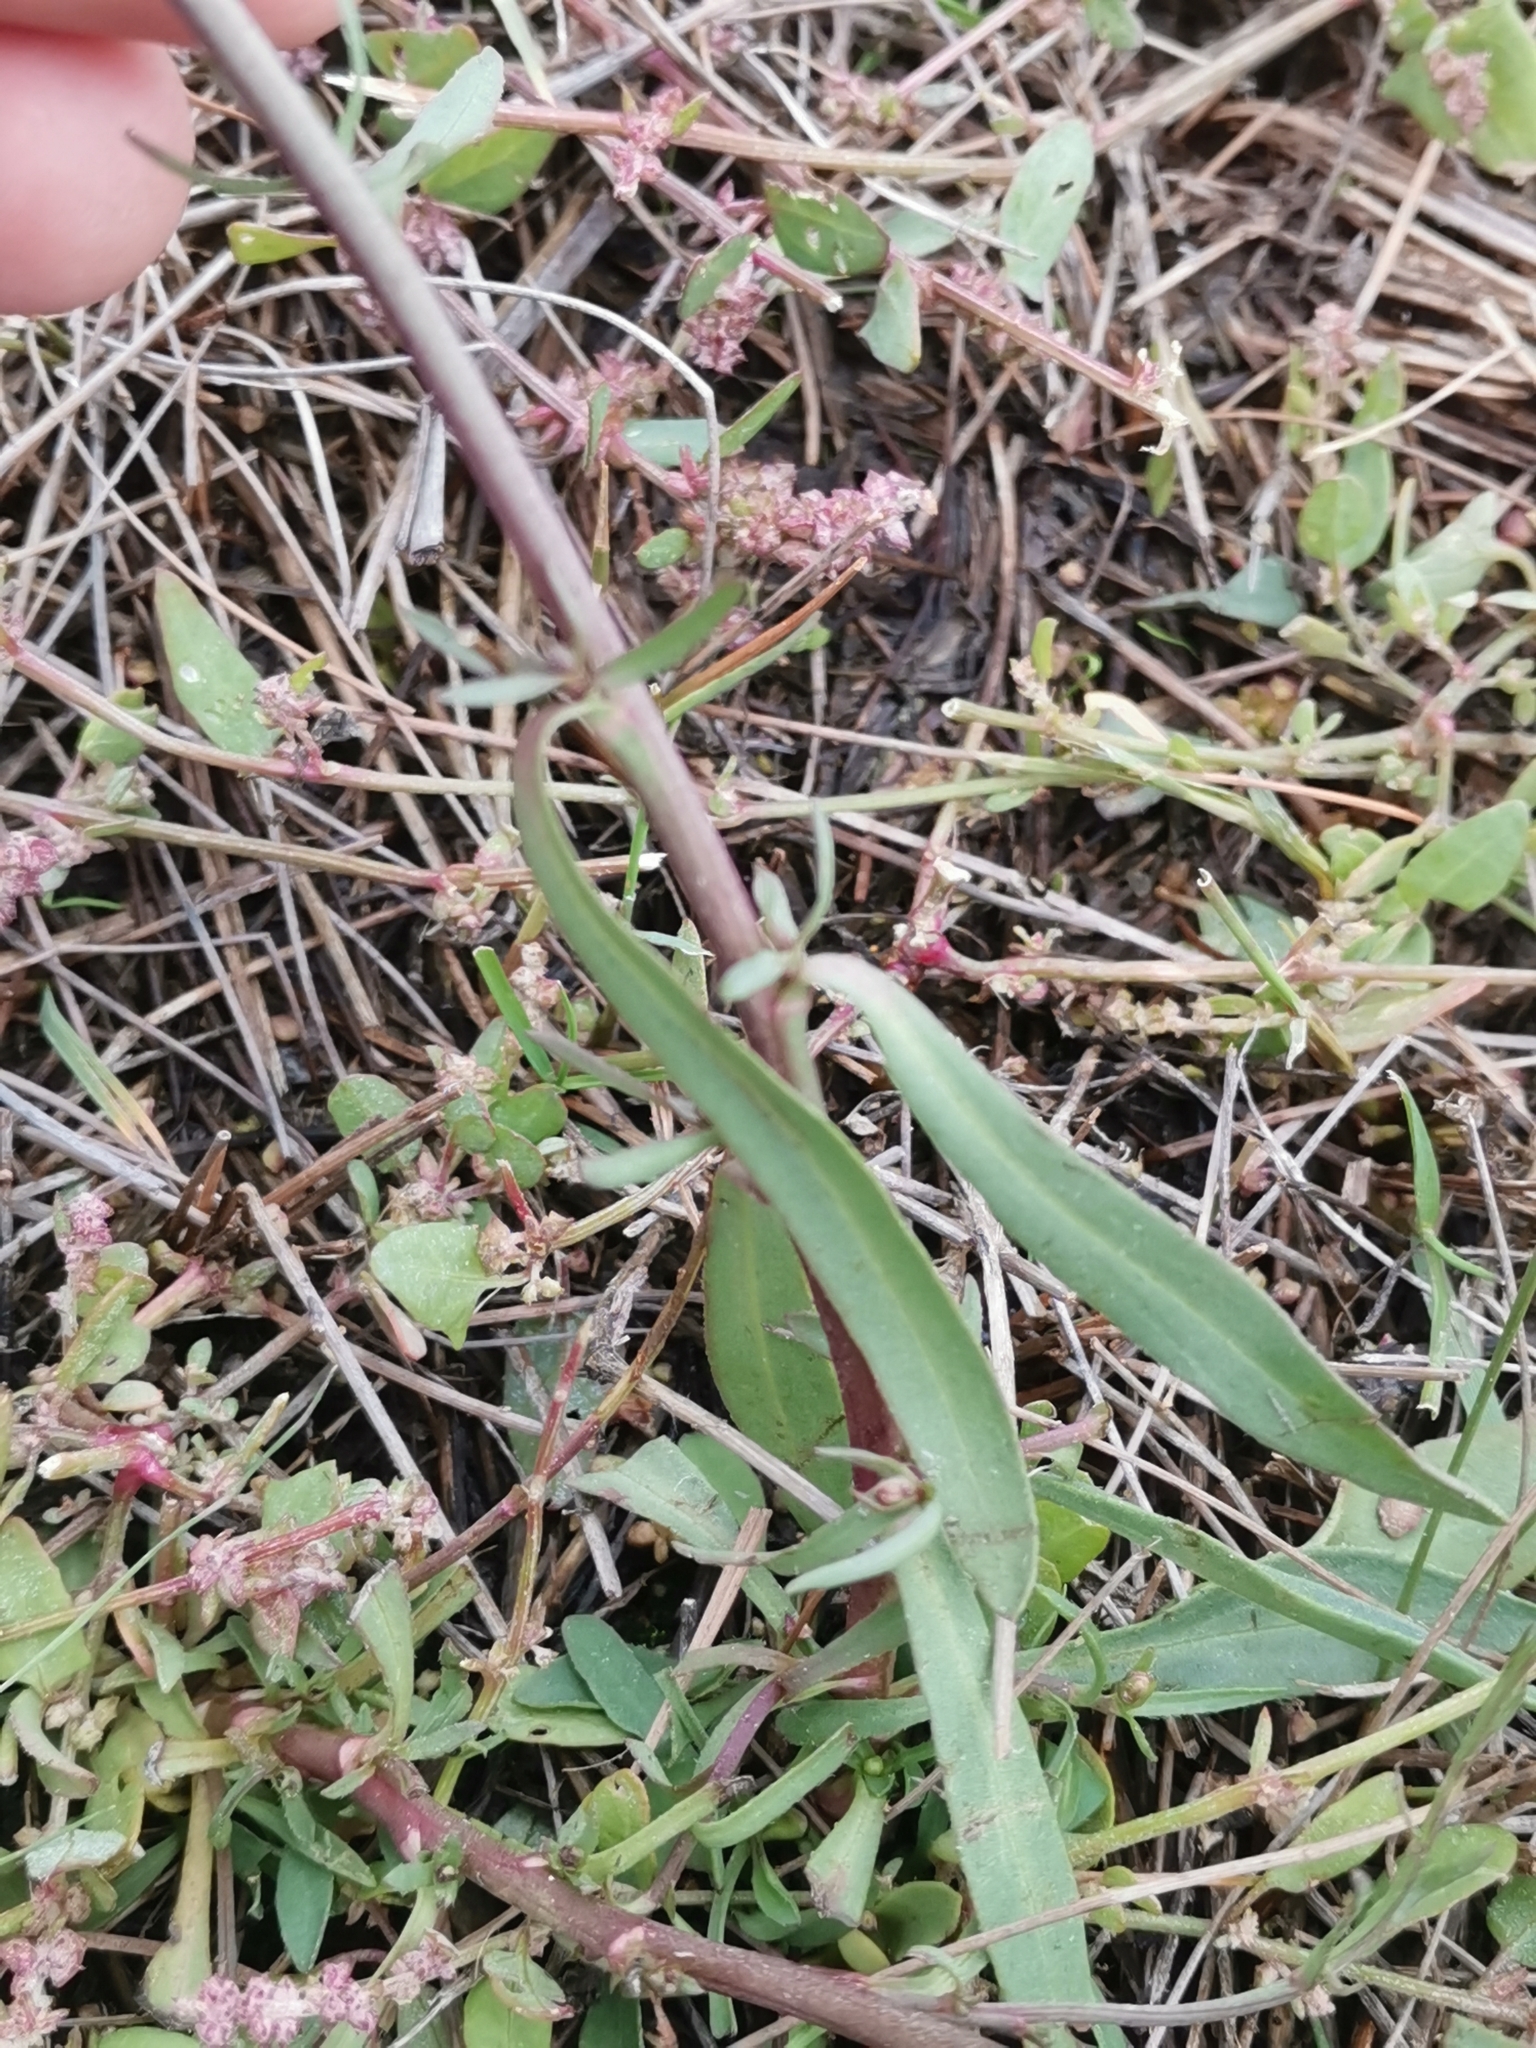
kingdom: Plantae
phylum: Tracheophyta
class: Magnoliopsida
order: Asterales
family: Asteraceae
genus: Tripolium
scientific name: Tripolium pannonicum
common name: Sea aster
